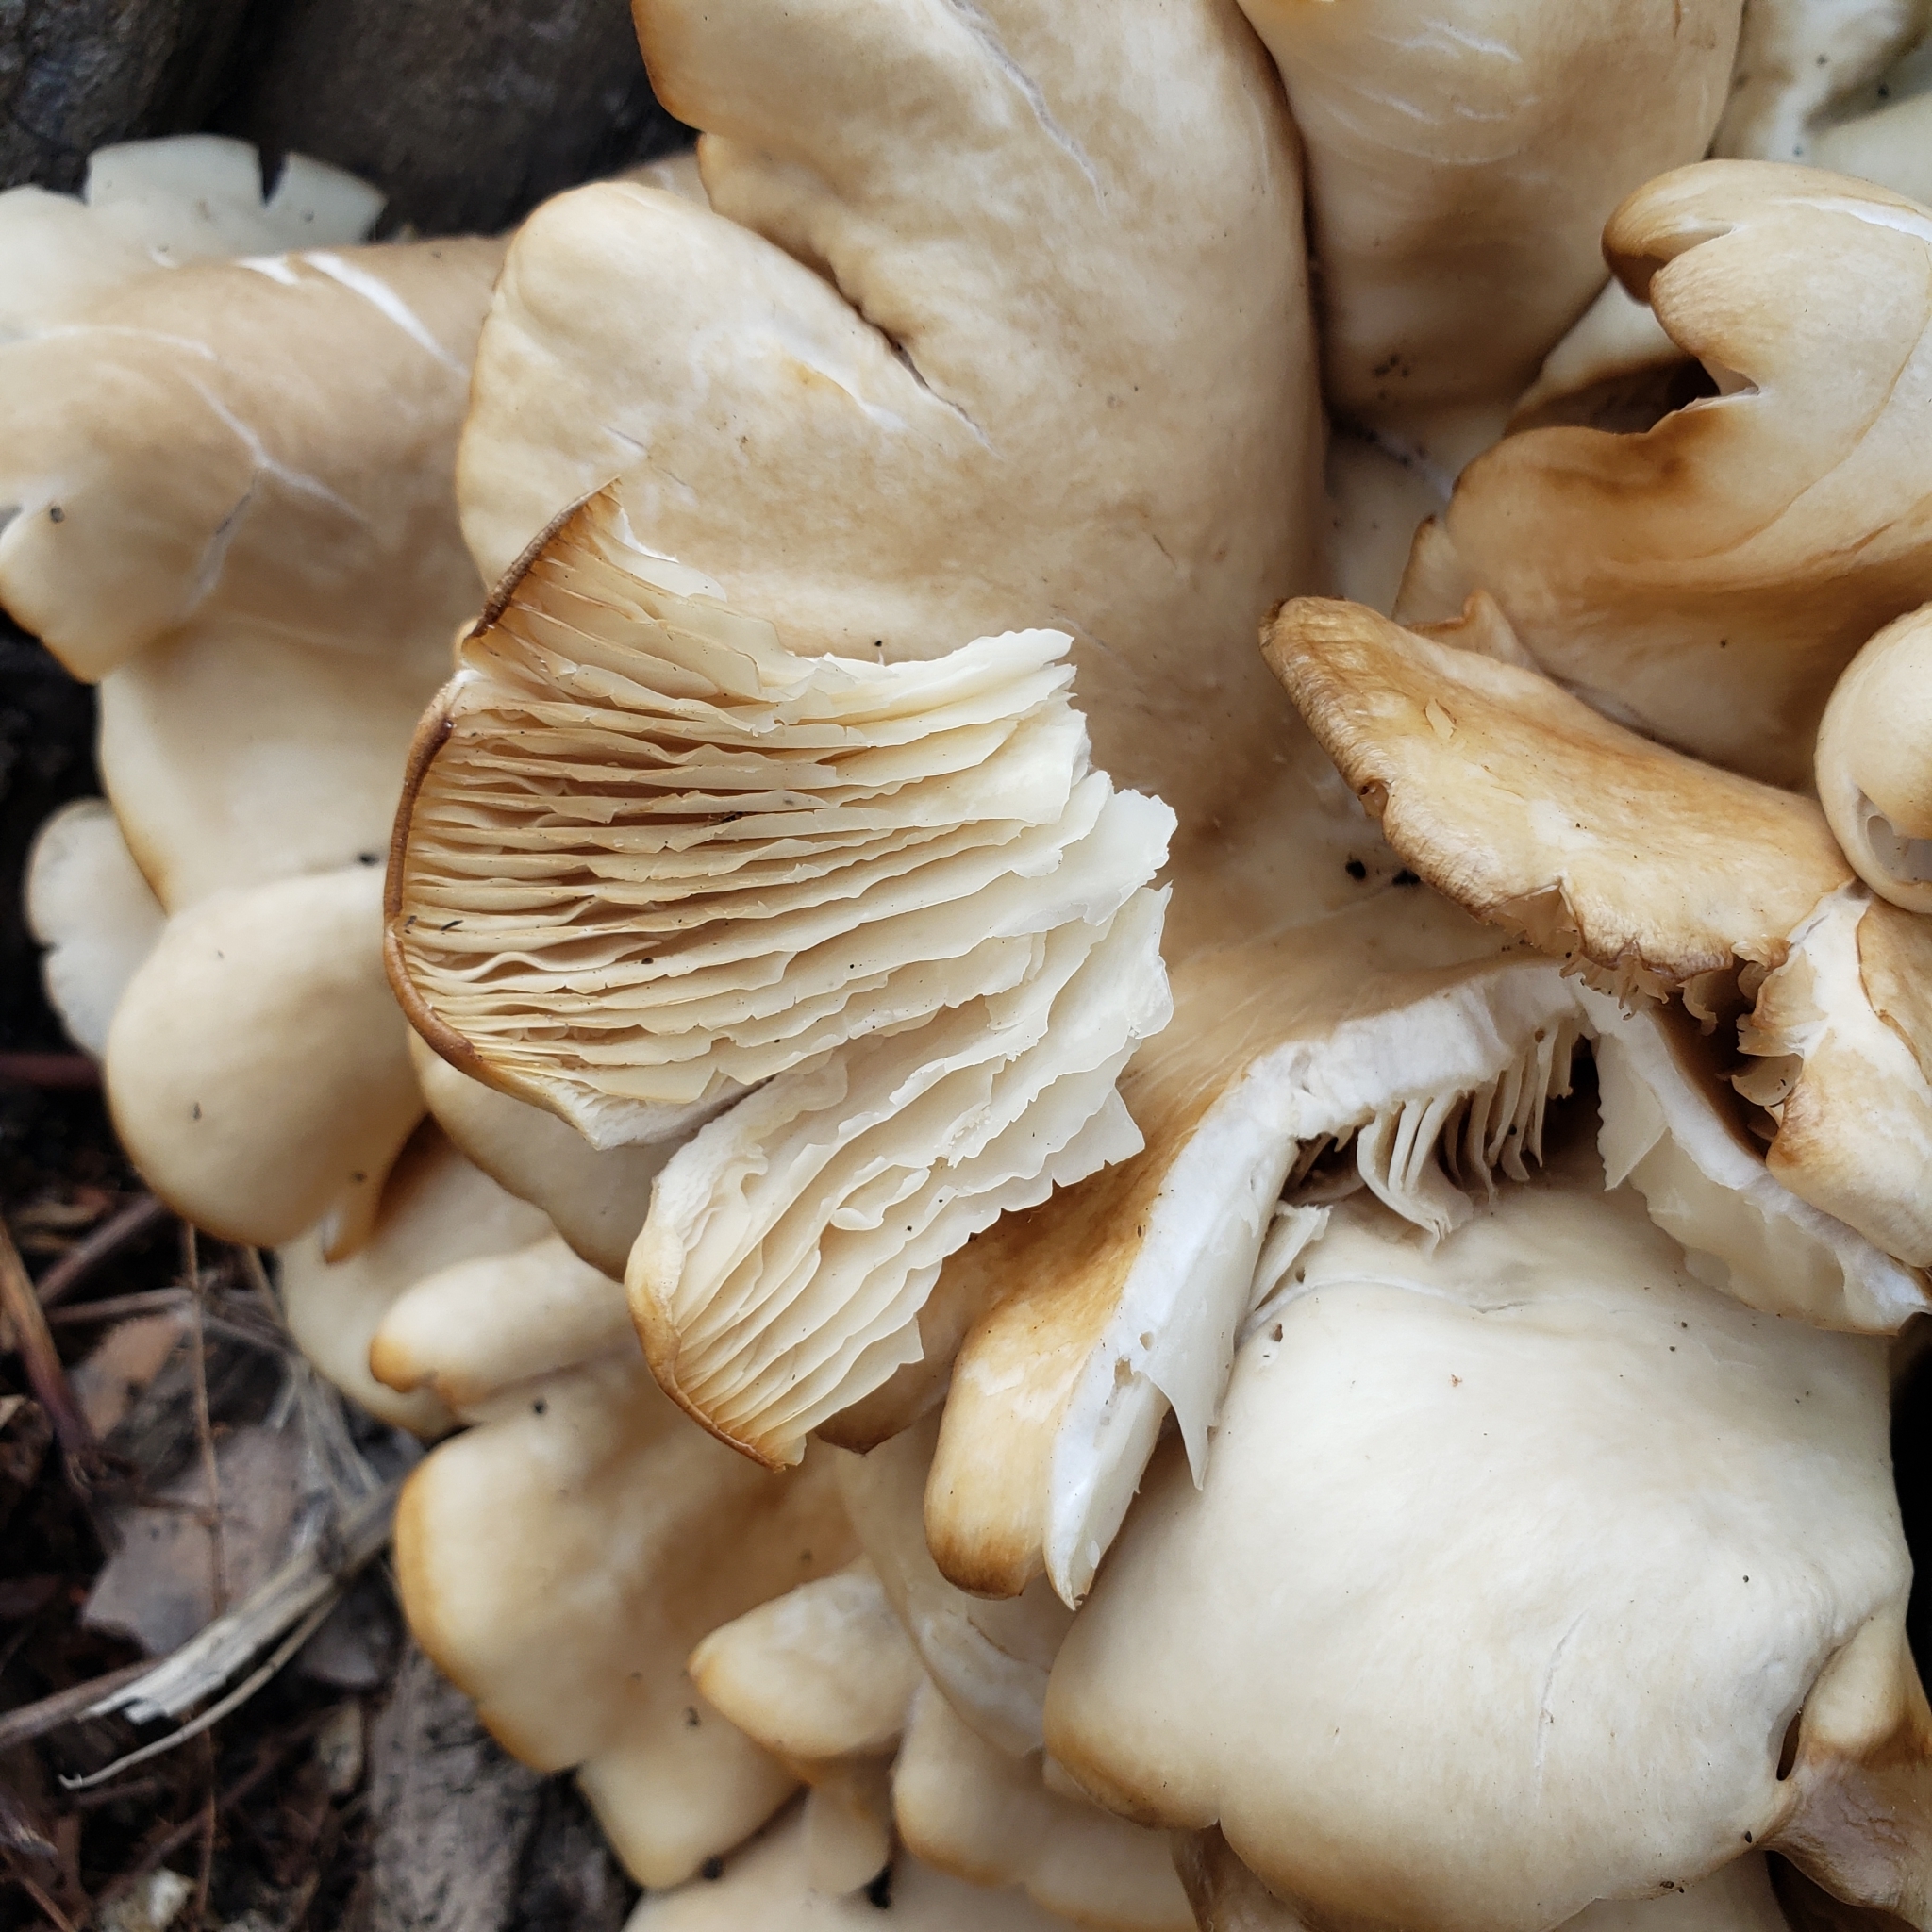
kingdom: Fungi
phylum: Basidiomycota
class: Agaricomycetes
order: Agaricales
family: Pleurotaceae
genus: Pleurotus
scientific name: Pleurotus ostreatus
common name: Oyster mushroom
